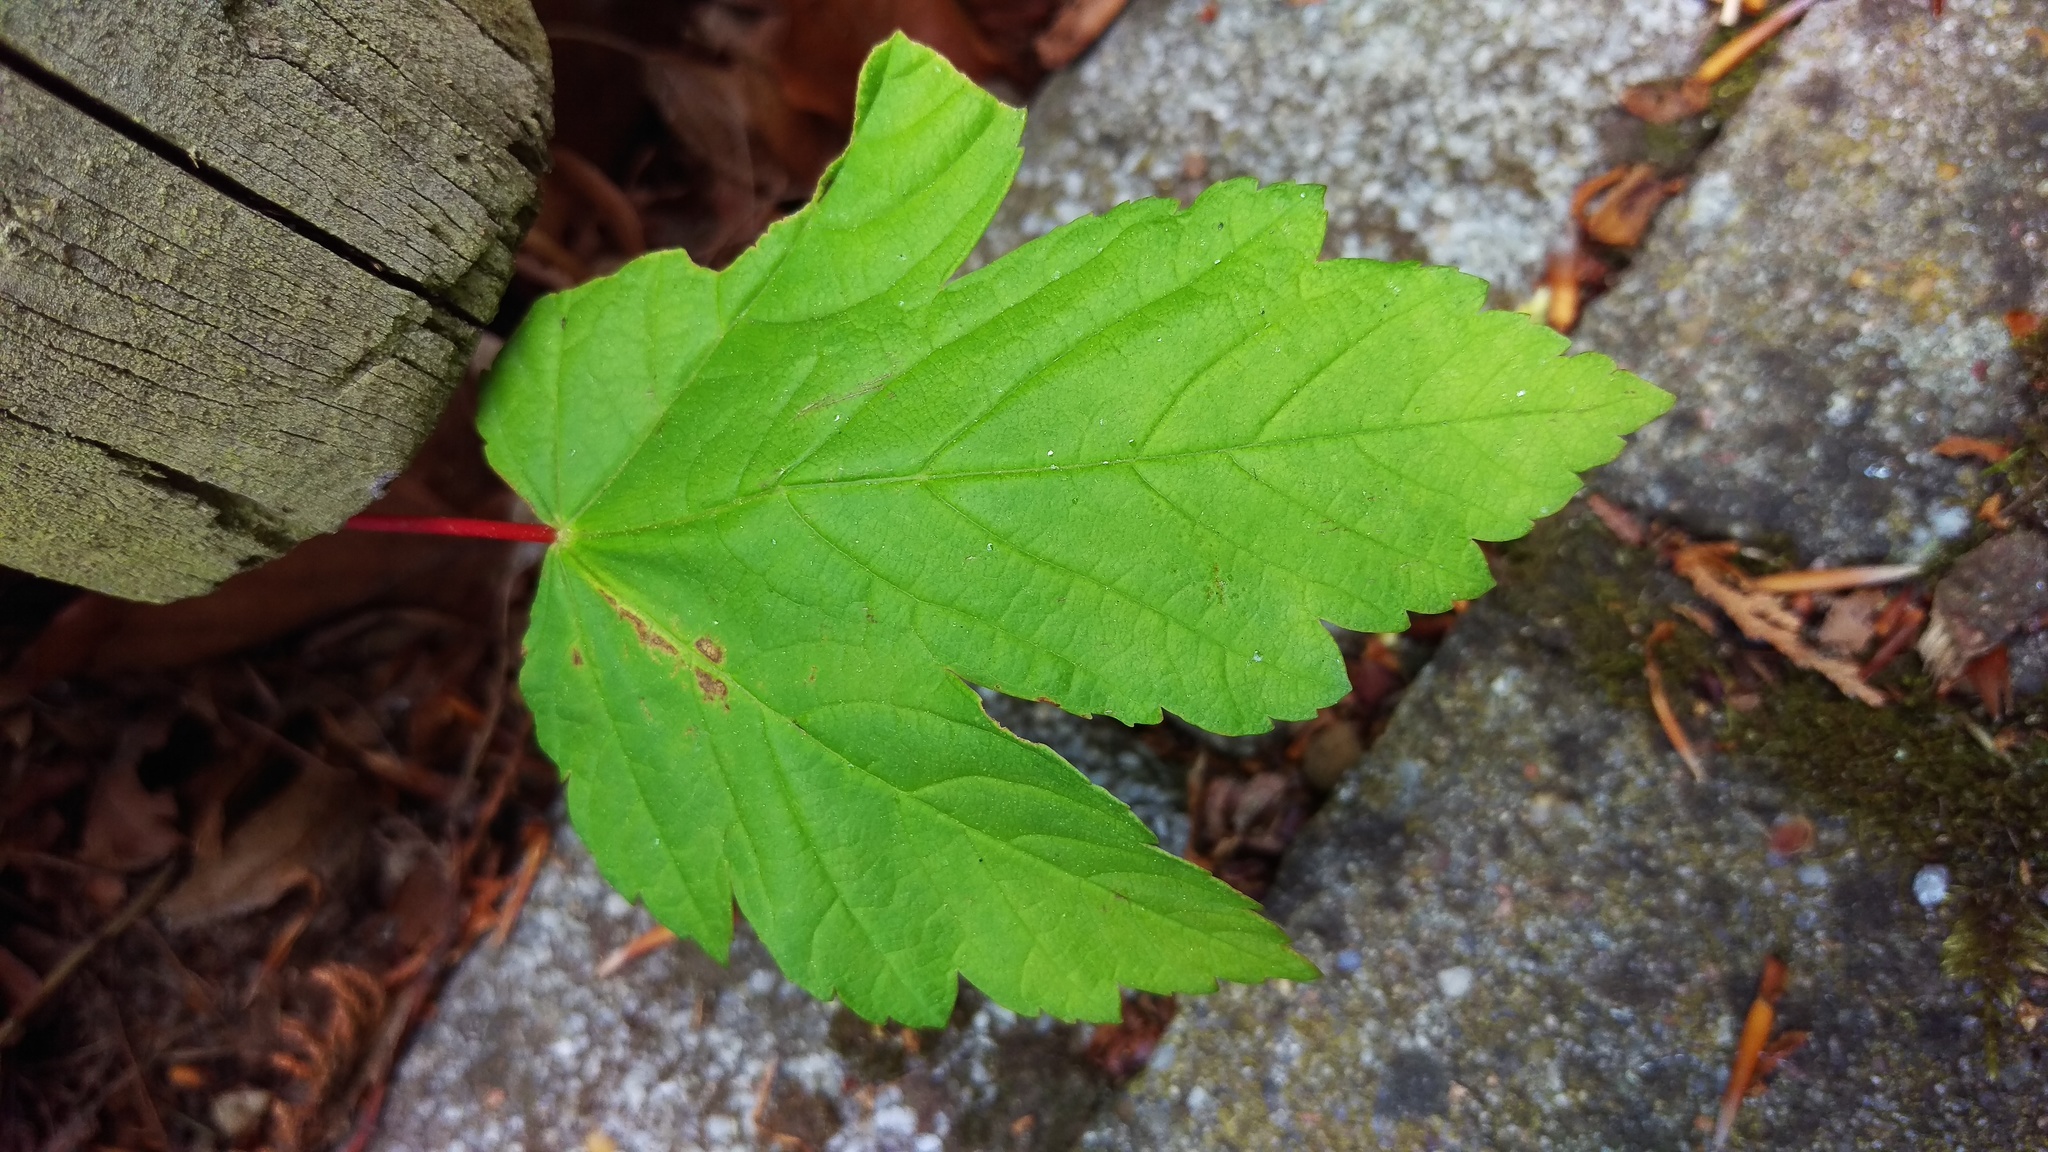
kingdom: Plantae
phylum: Tracheophyta
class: Magnoliopsida
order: Sapindales
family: Sapindaceae
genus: Acer
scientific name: Acer pseudoplatanus
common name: Sycamore
